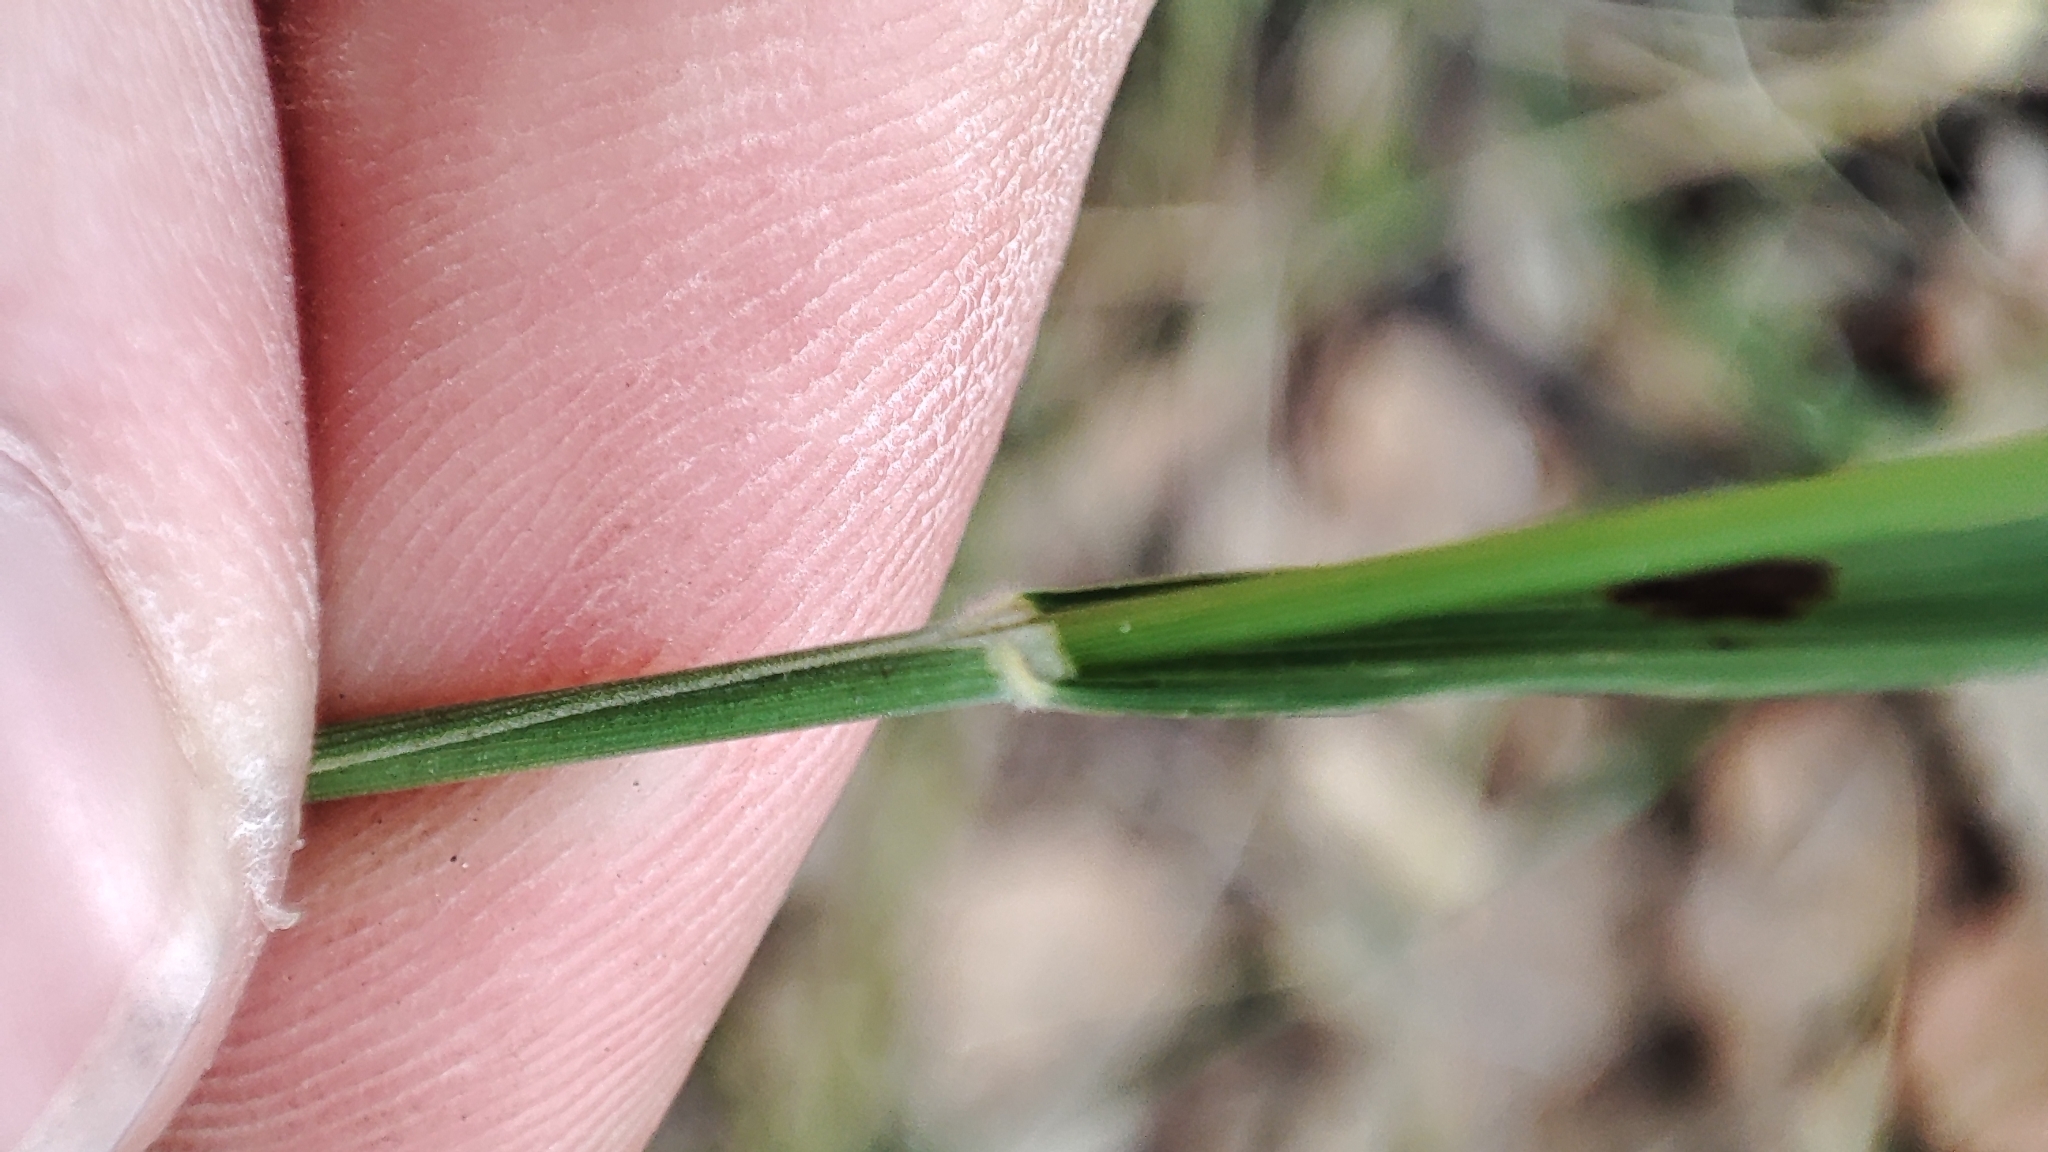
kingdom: Plantae
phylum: Tracheophyta
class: Liliopsida
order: Poales
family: Poaceae
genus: Brachypodium
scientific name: Brachypodium pinnatum
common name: Tor grass
